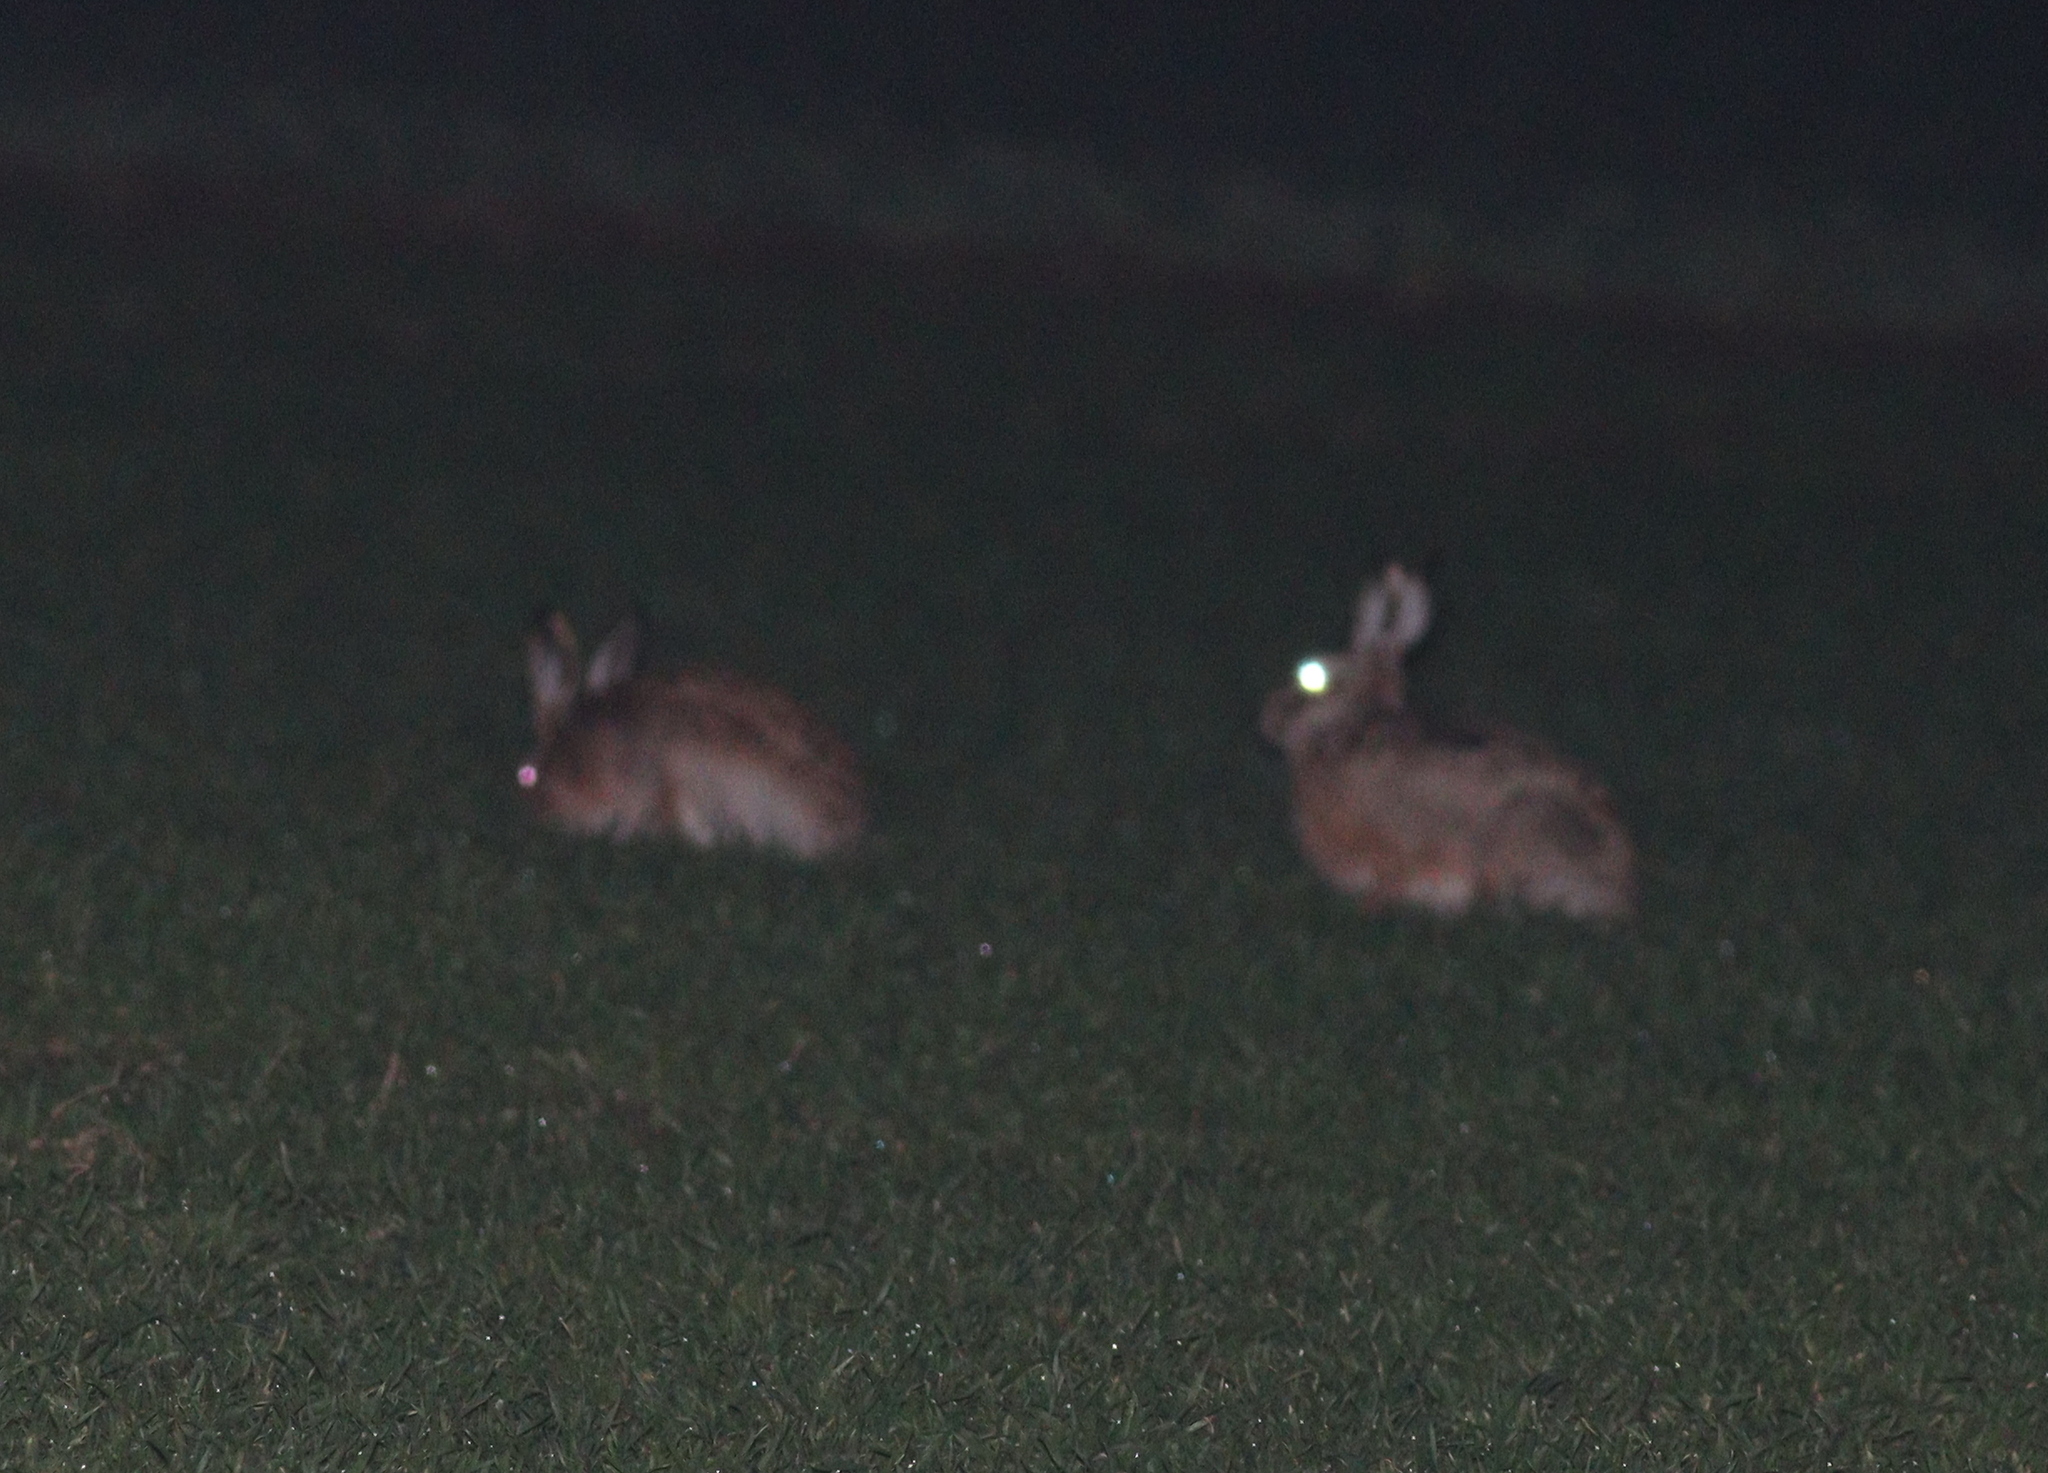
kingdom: Animalia
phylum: Chordata
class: Mammalia
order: Lagomorpha
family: Leporidae
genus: Lepus
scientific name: Lepus europaeus
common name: European hare
